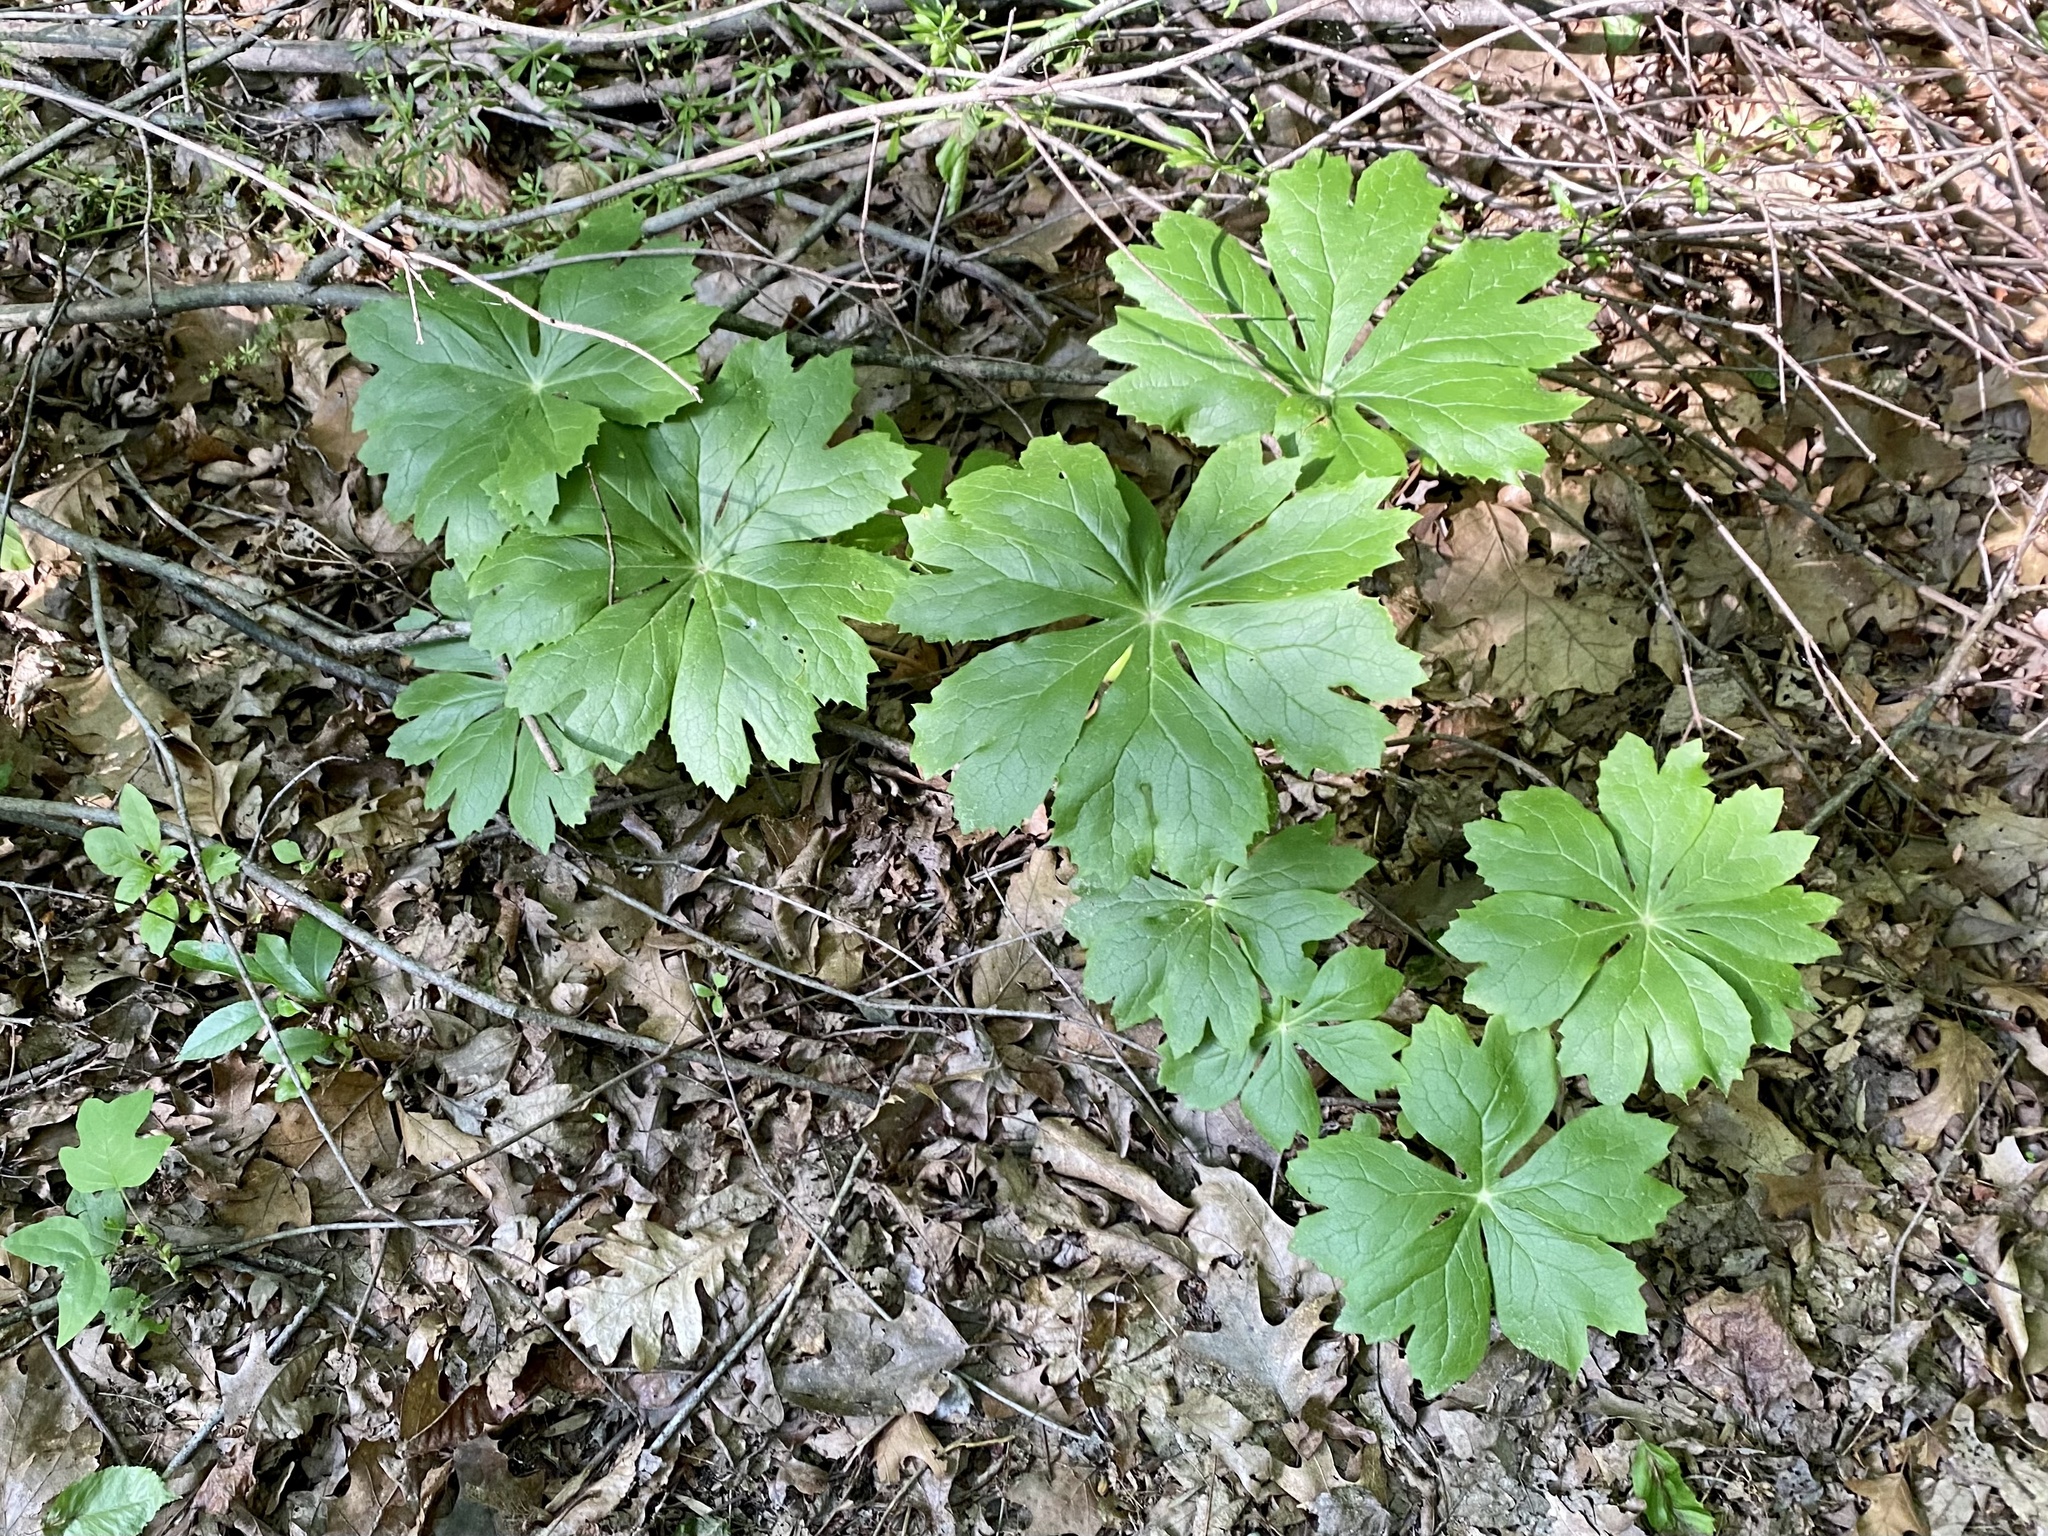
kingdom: Plantae
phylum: Tracheophyta
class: Magnoliopsida
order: Ranunculales
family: Berberidaceae
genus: Podophyllum
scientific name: Podophyllum peltatum
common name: Wild mandrake
